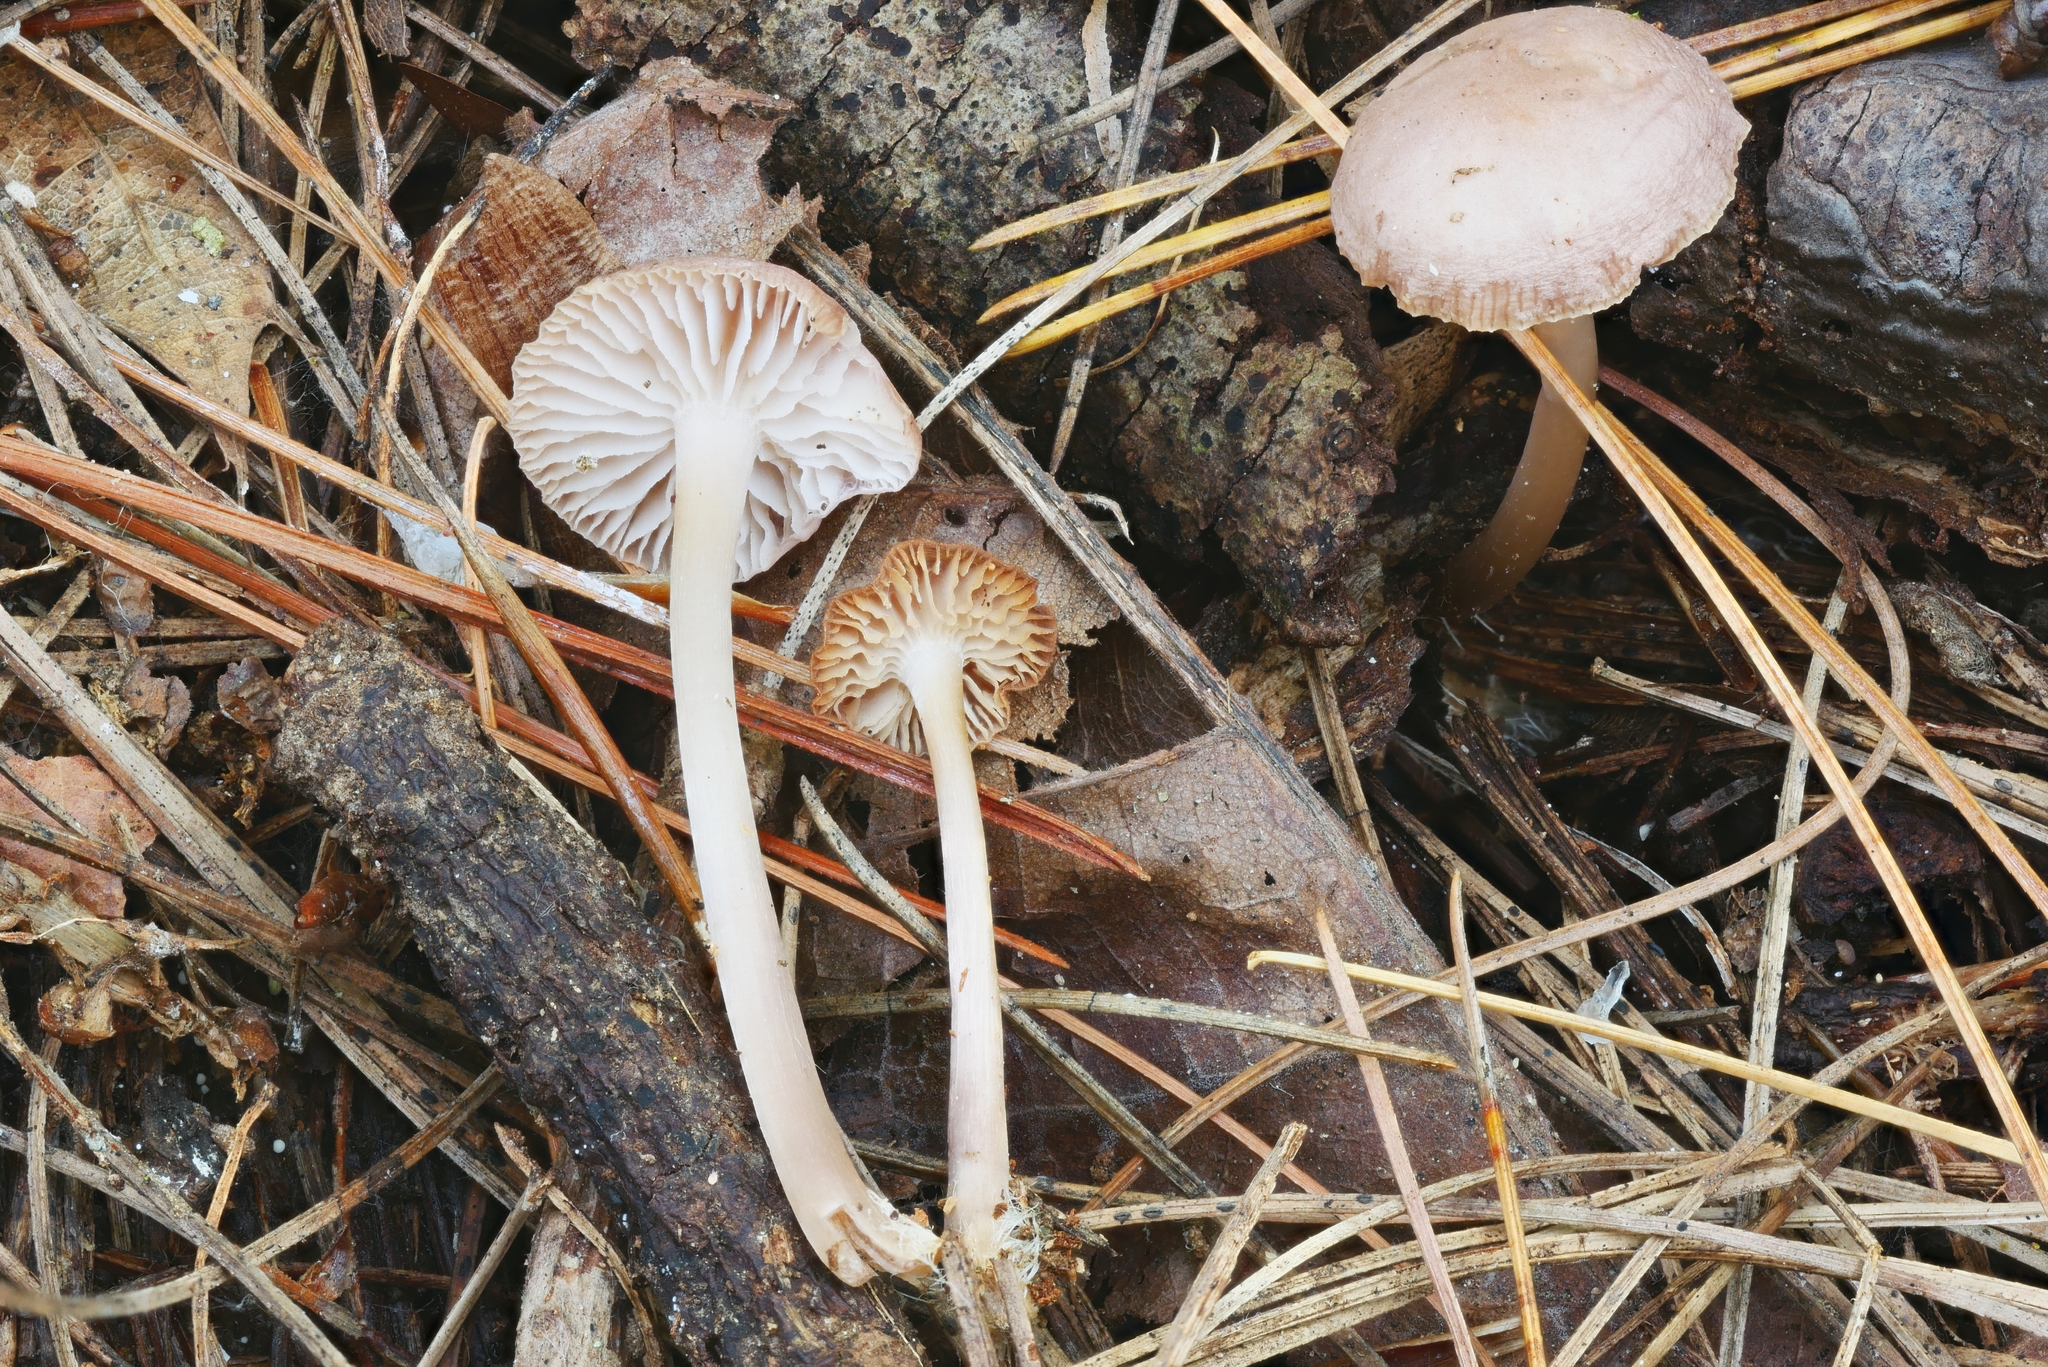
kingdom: Fungi
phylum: Basidiomycota
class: Agaricomycetes
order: Agaricales
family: Mycenaceae
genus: Mycena
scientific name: Mycena pearsoniana
